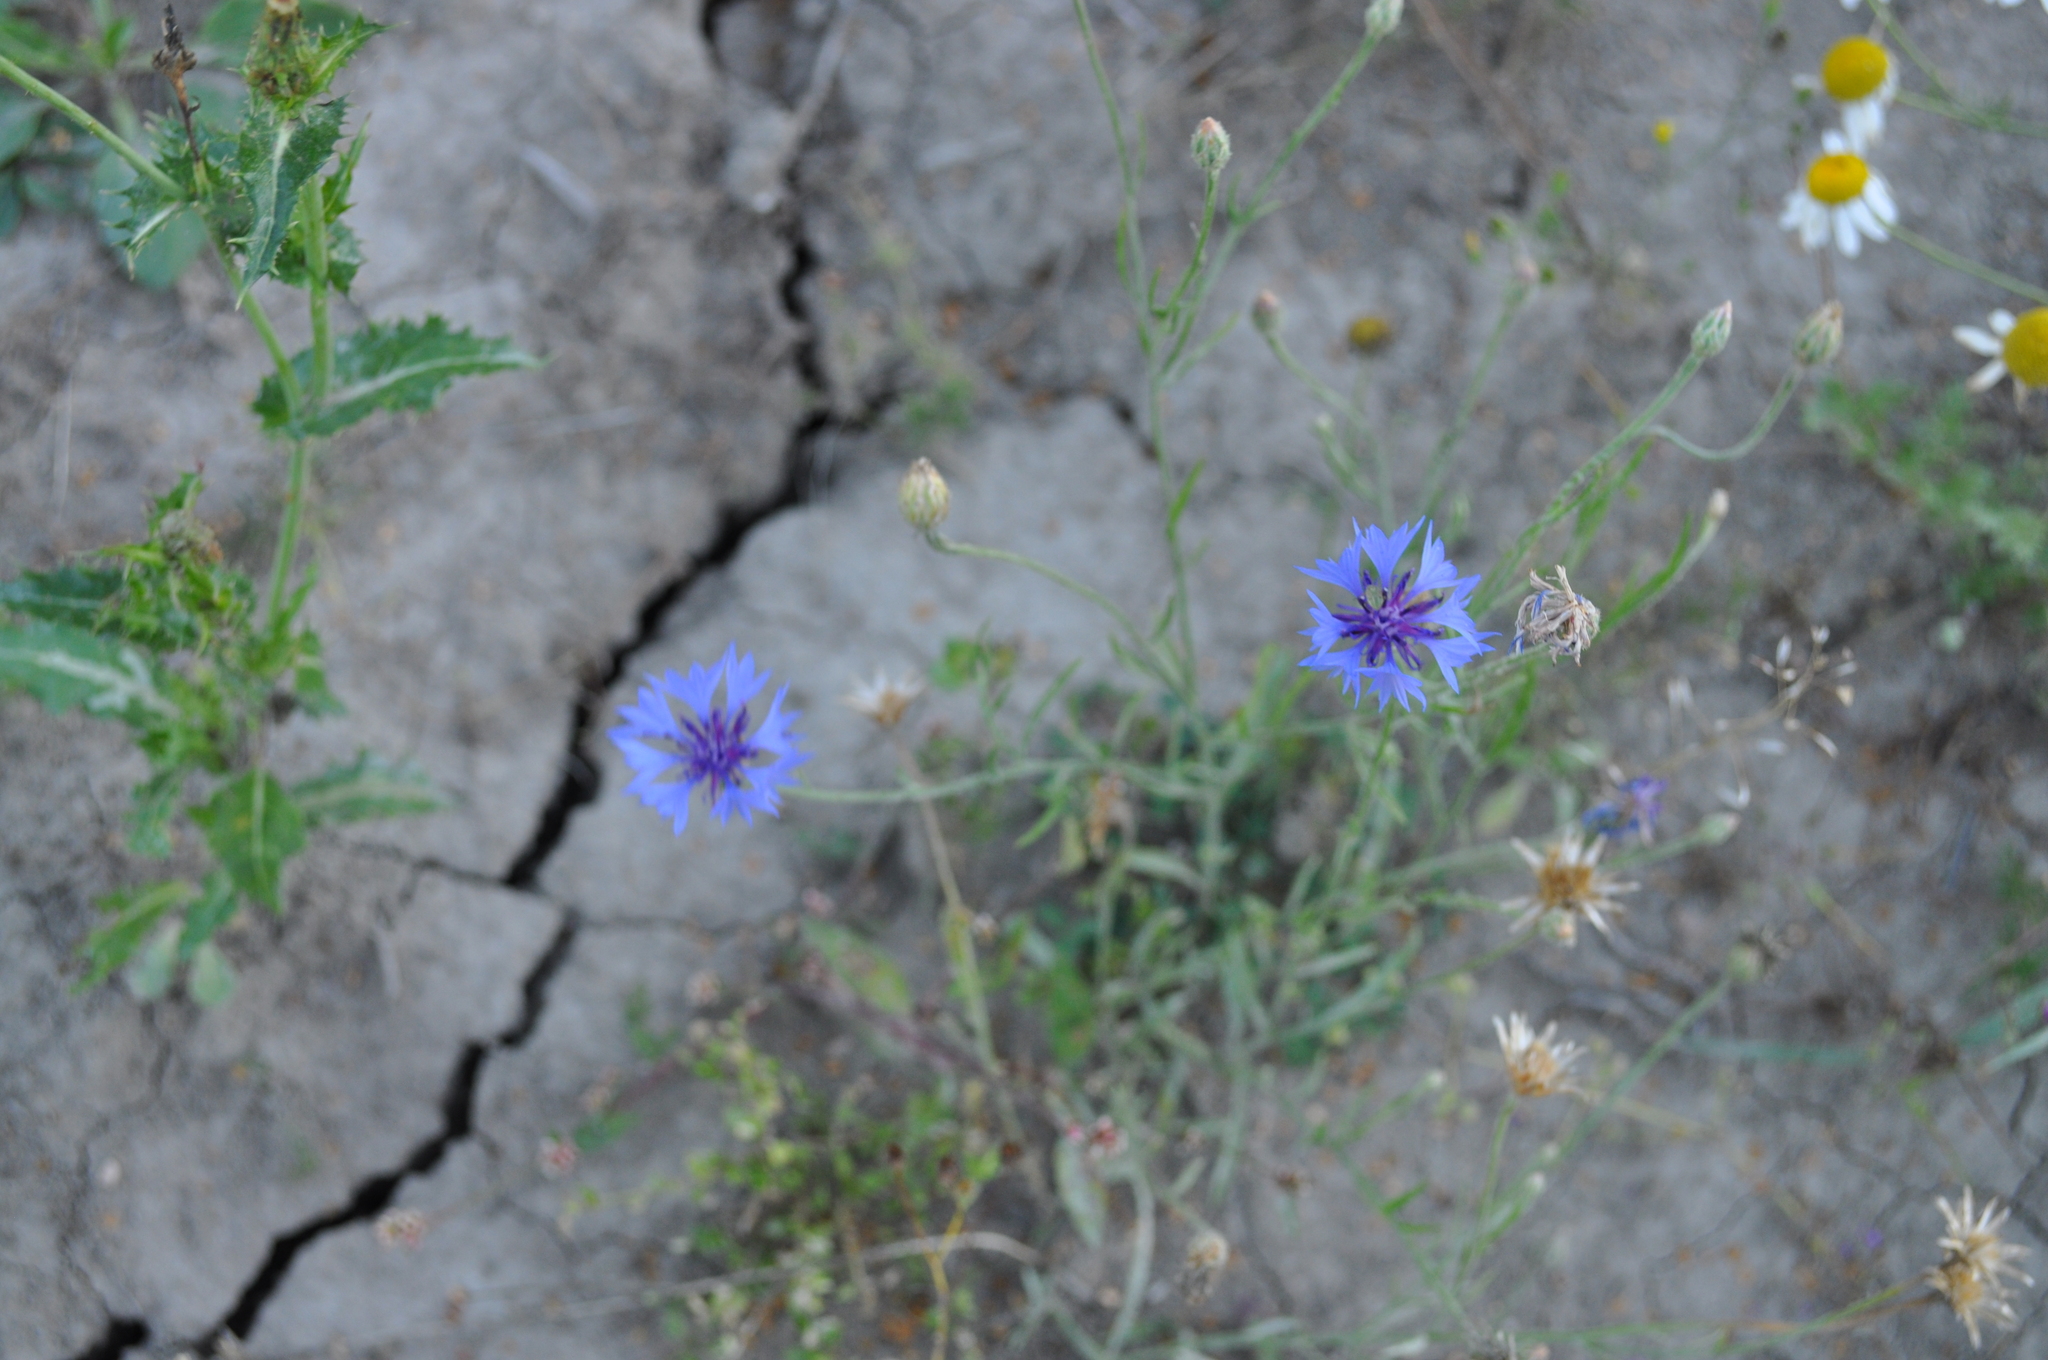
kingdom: Plantae
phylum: Tracheophyta
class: Magnoliopsida
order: Asterales
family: Asteraceae
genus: Centaurea
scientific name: Centaurea cyanus
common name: Cornflower
